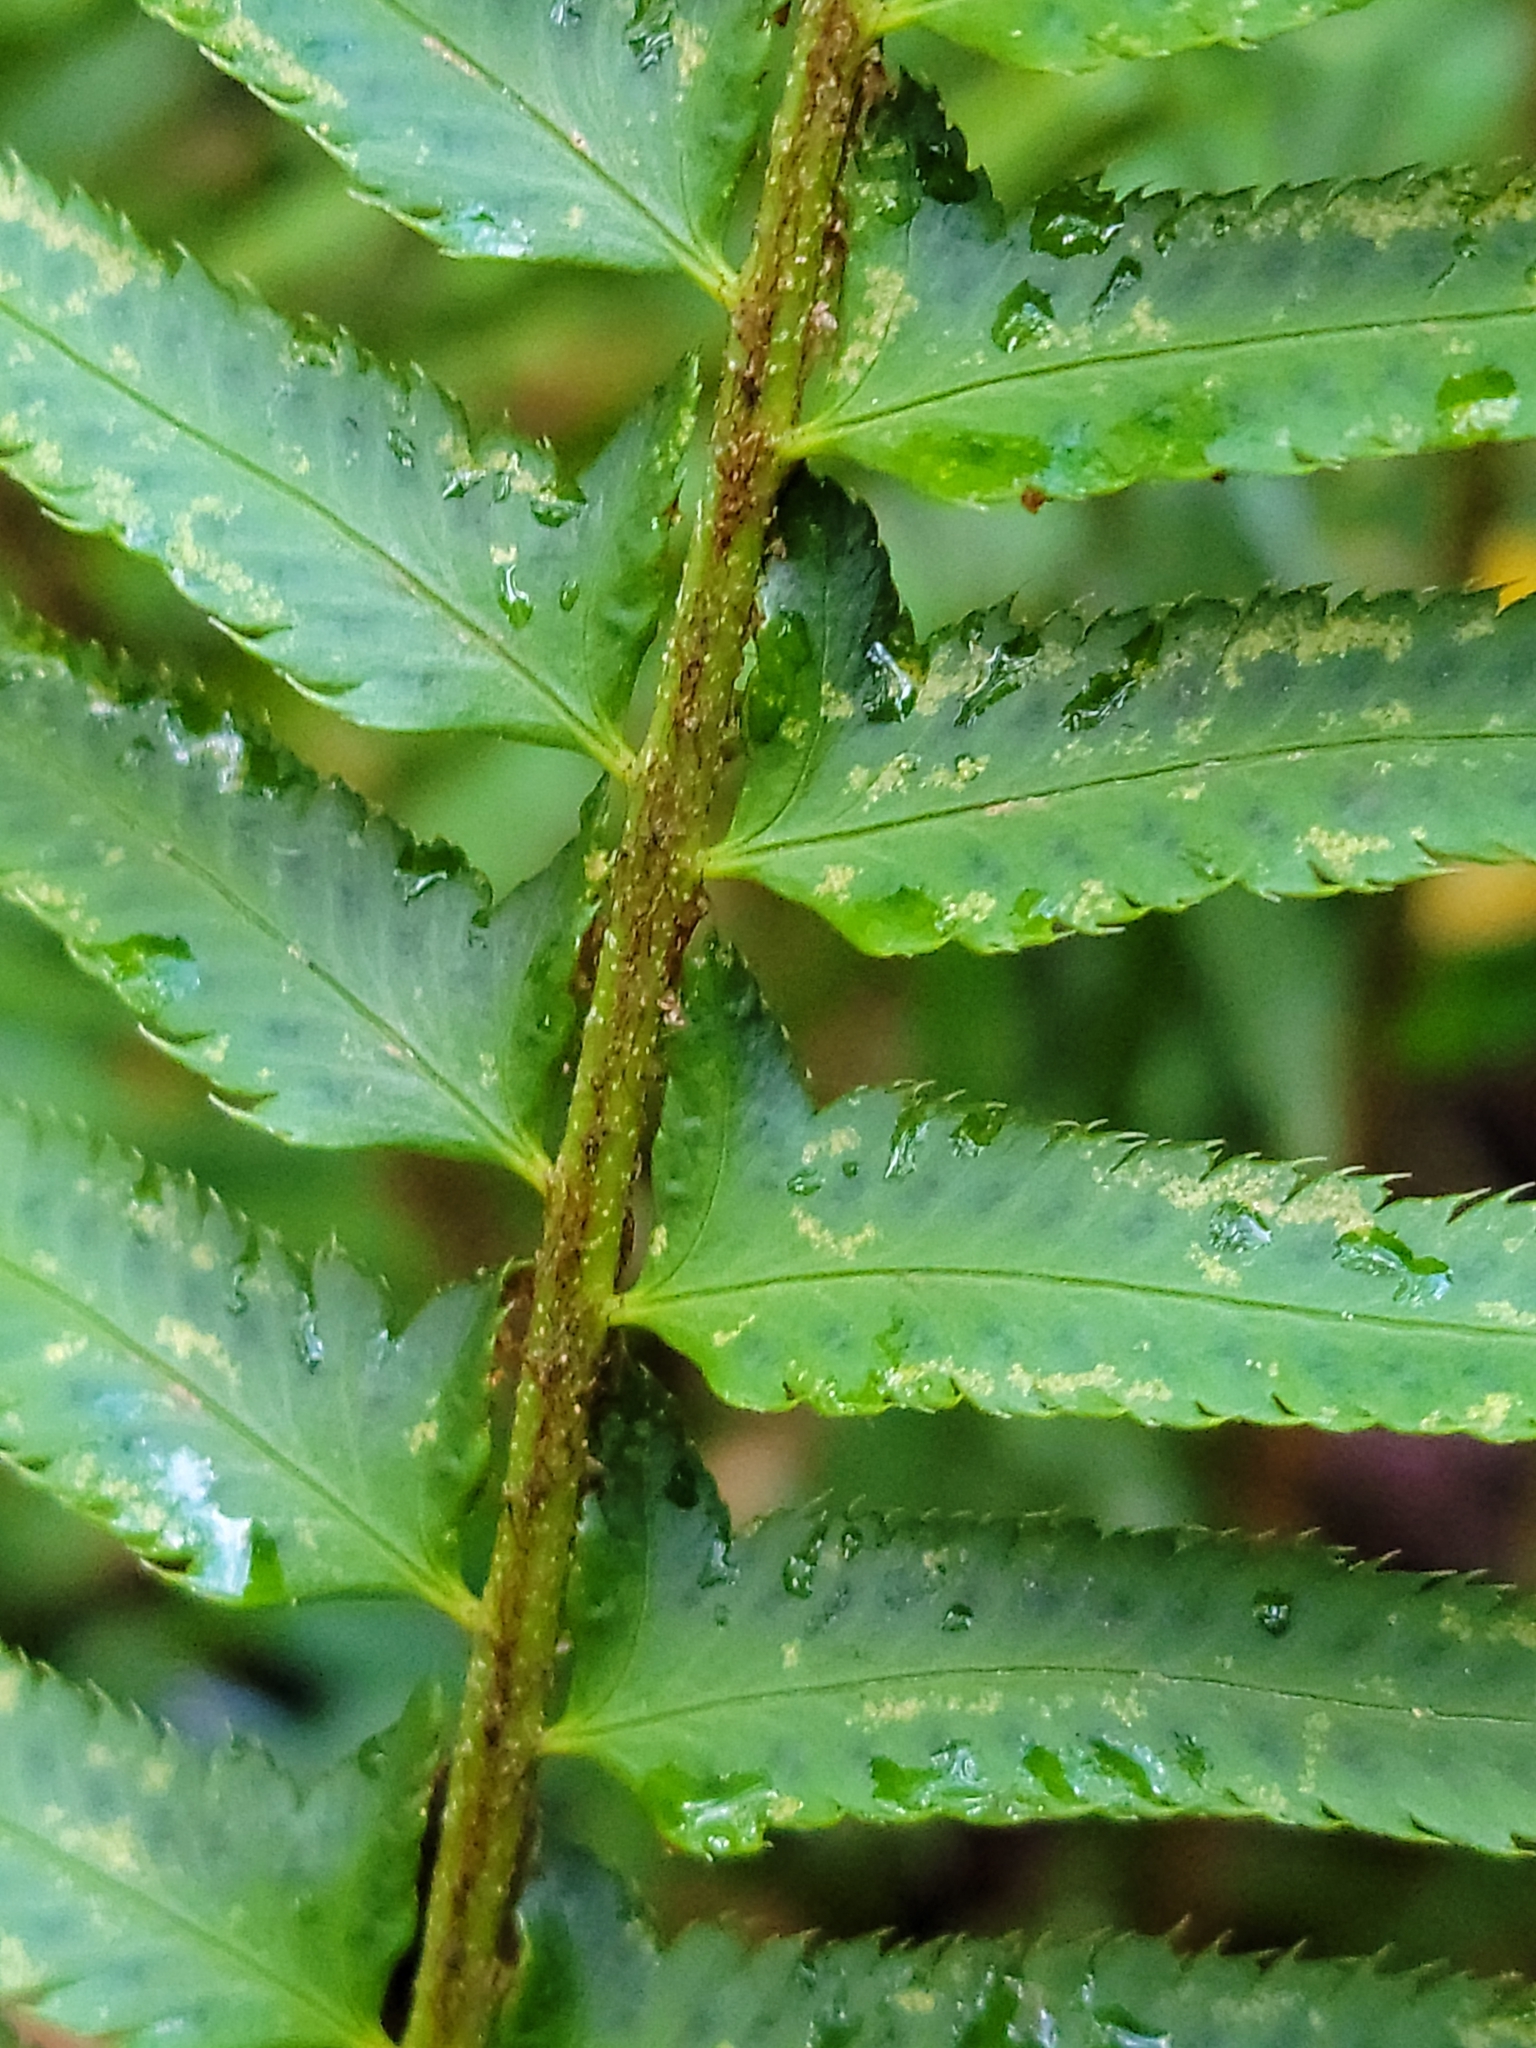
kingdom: Plantae
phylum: Tracheophyta
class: Polypodiopsida
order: Polypodiales
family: Dryopteridaceae
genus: Polystichum
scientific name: Polystichum munitum
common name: Western sword-fern
